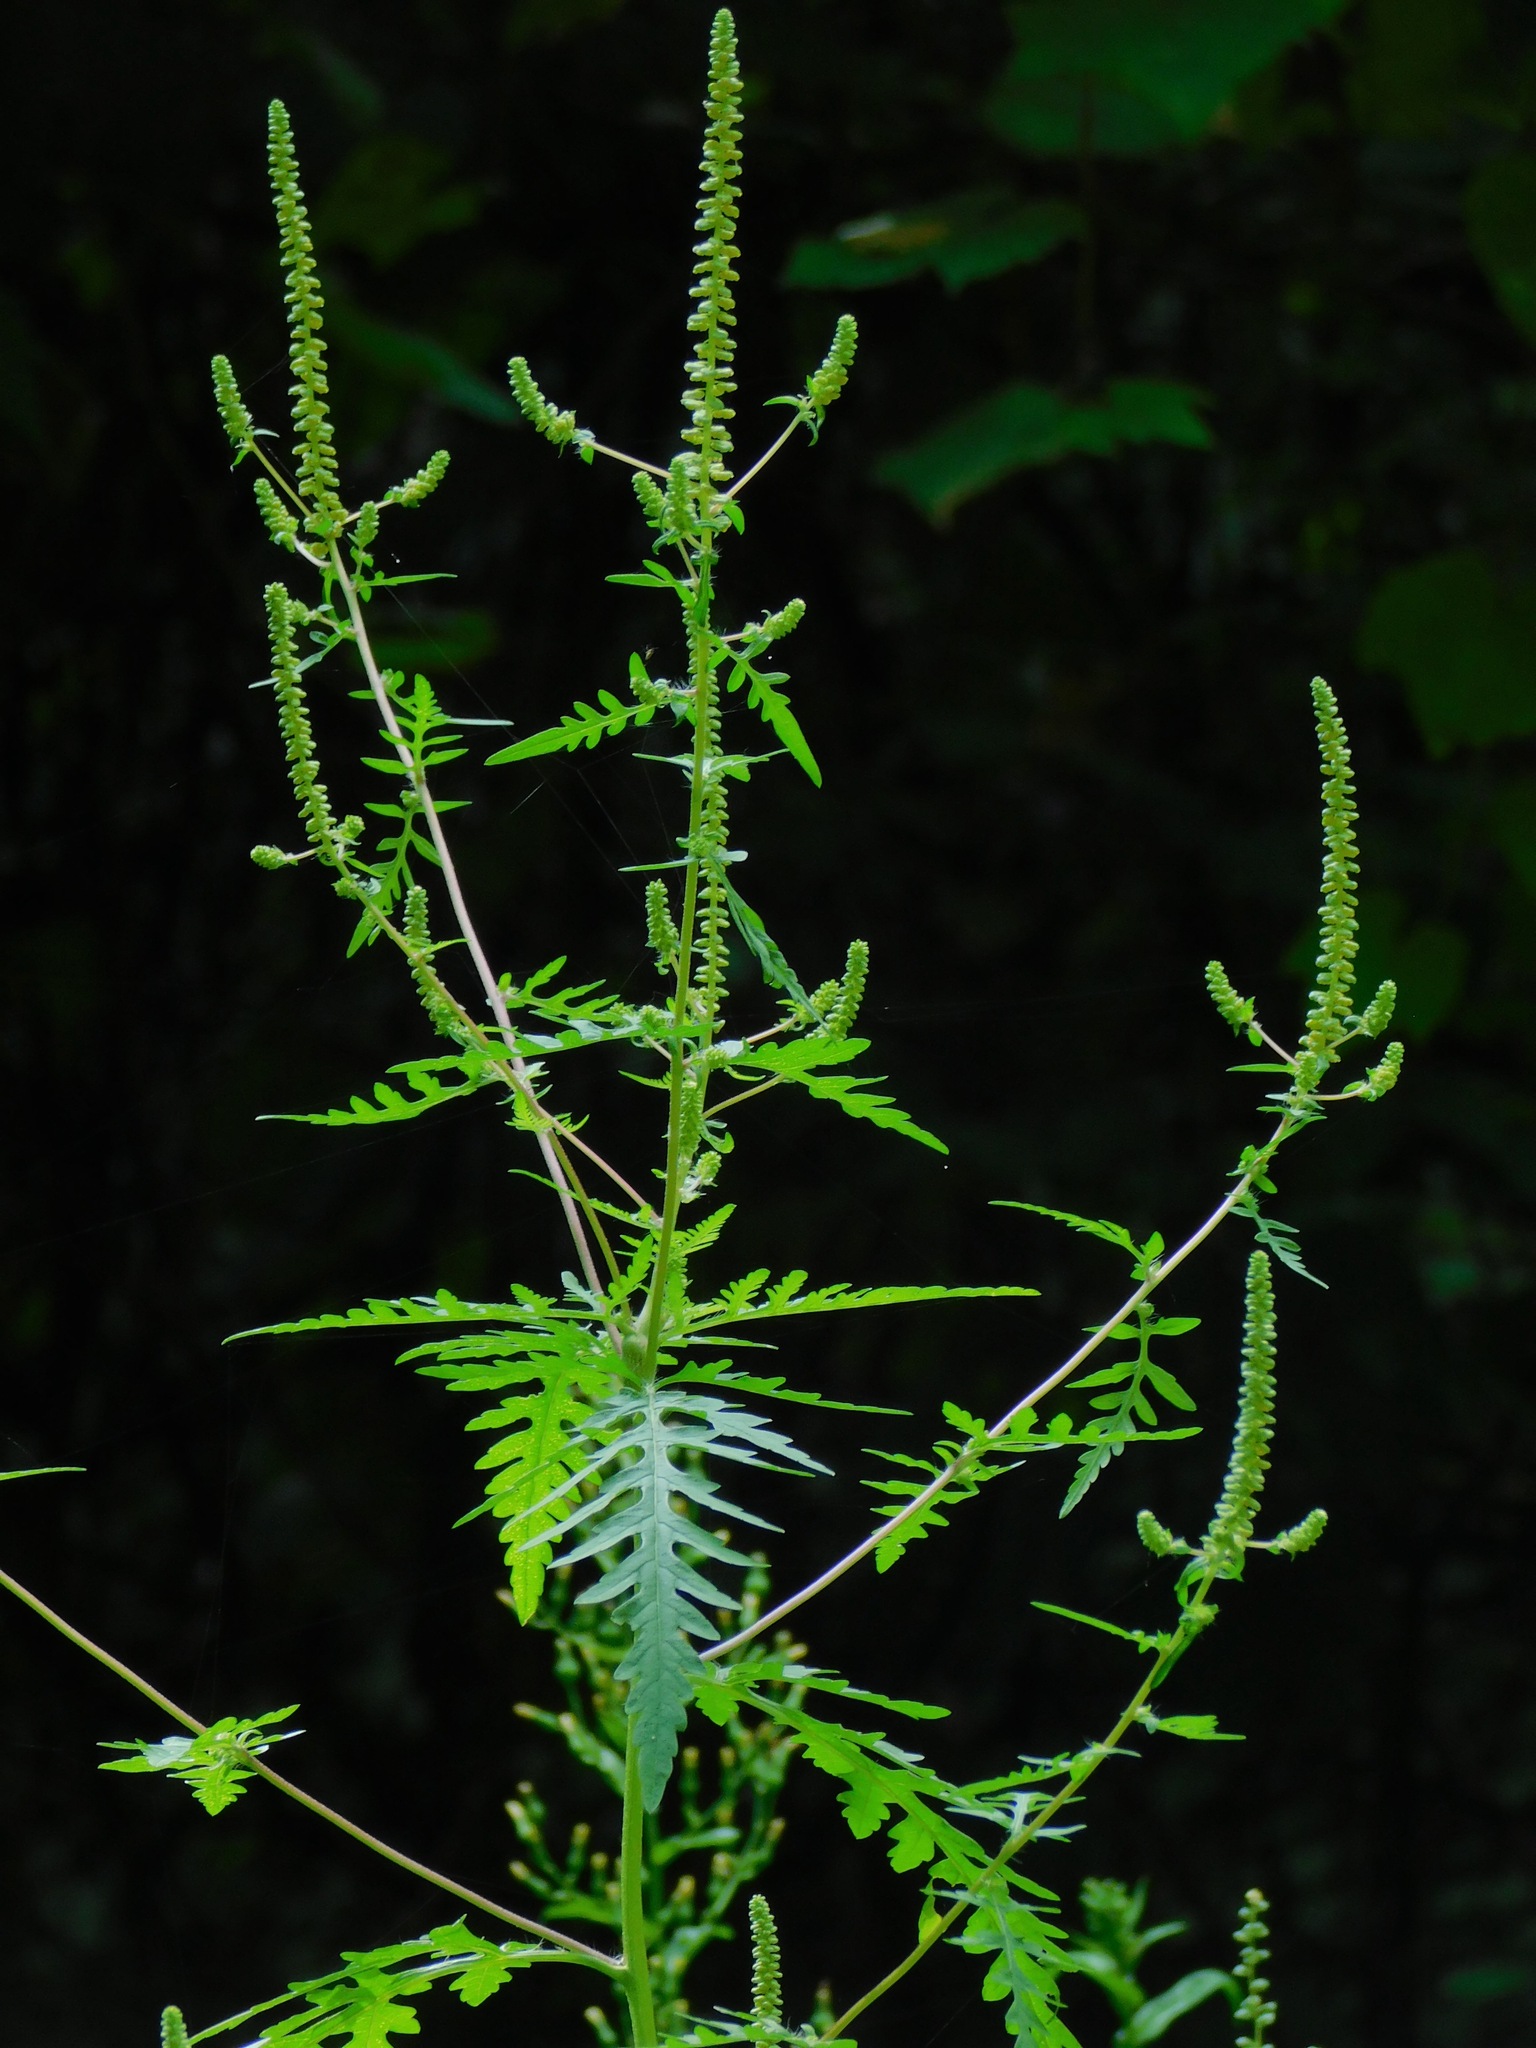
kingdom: Plantae
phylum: Tracheophyta
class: Magnoliopsida
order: Asterales
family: Asteraceae
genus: Ambrosia
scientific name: Ambrosia artemisiifolia
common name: Annual ragweed
